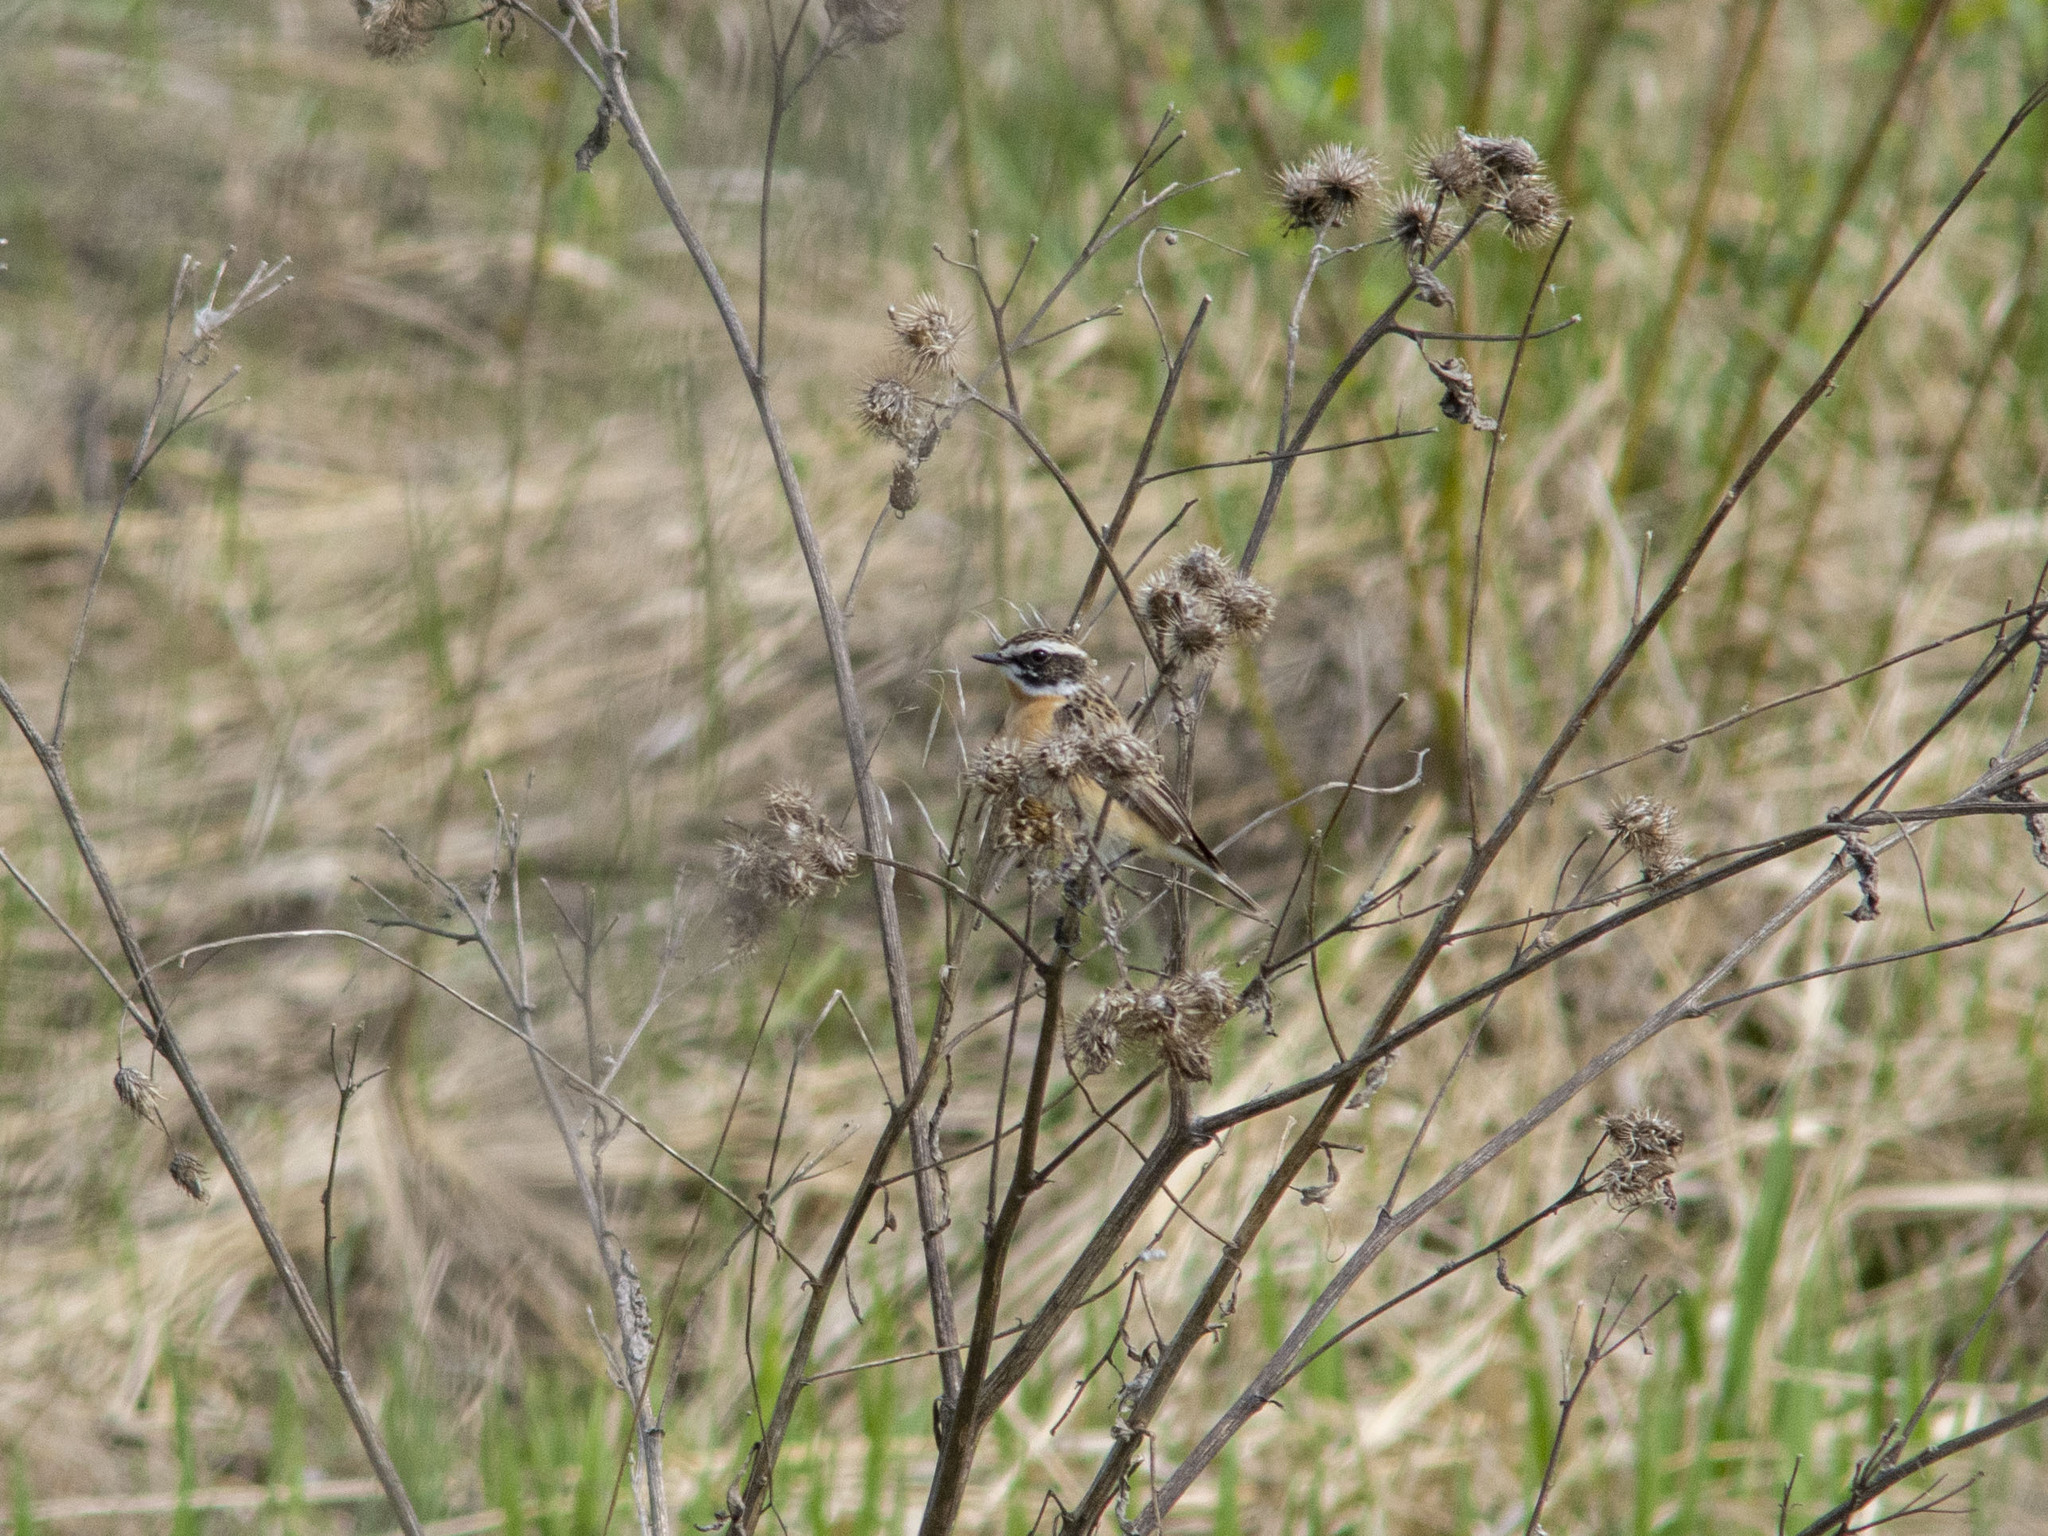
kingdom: Animalia
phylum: Chordata
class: Aves
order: Passeriformes
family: Muscicapidae
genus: Saxicola
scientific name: Saxicola rubetra
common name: Whinchat
